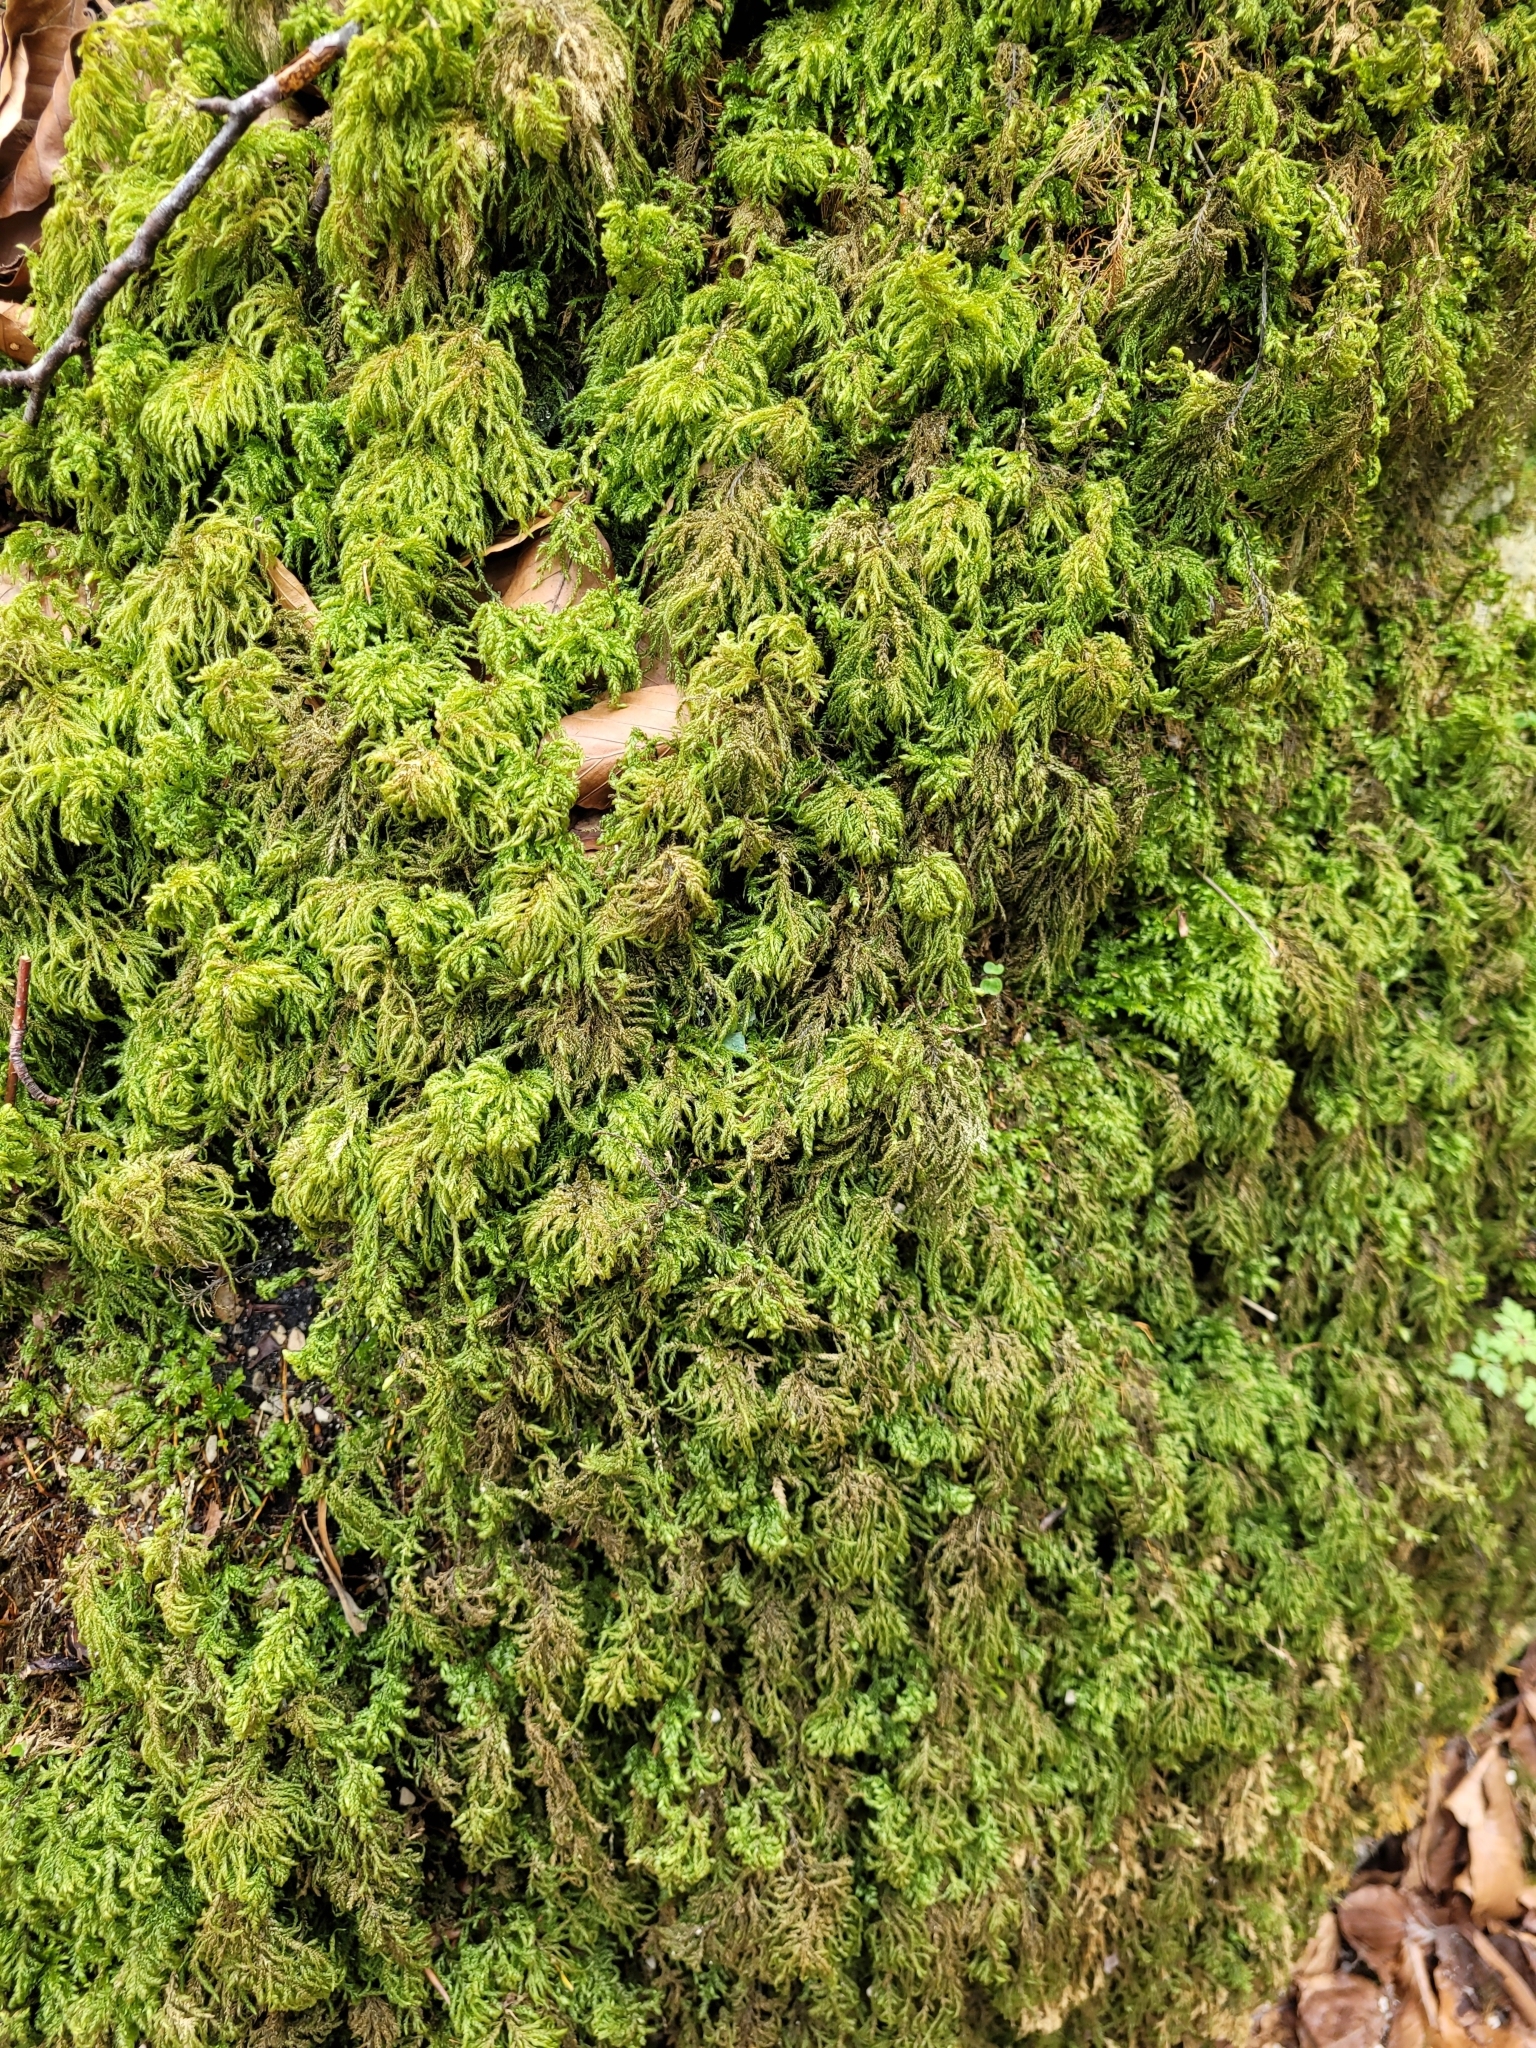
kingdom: Plantae
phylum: Bryophyta
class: Bryopsida
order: Hypnales
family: Neckeraceae
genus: Thamnobryum
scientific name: Thamnobryum alopecurum
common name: Fox-tail feather-moss
